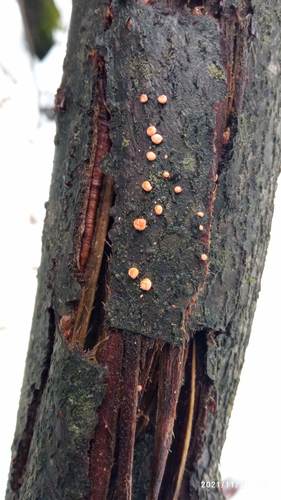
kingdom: Fungi
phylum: Ascomycota
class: Sordariomycetes
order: Hypocreales
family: Nectriaceae
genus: Nectria
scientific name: Nectria cinnabarina
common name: Coral spot
